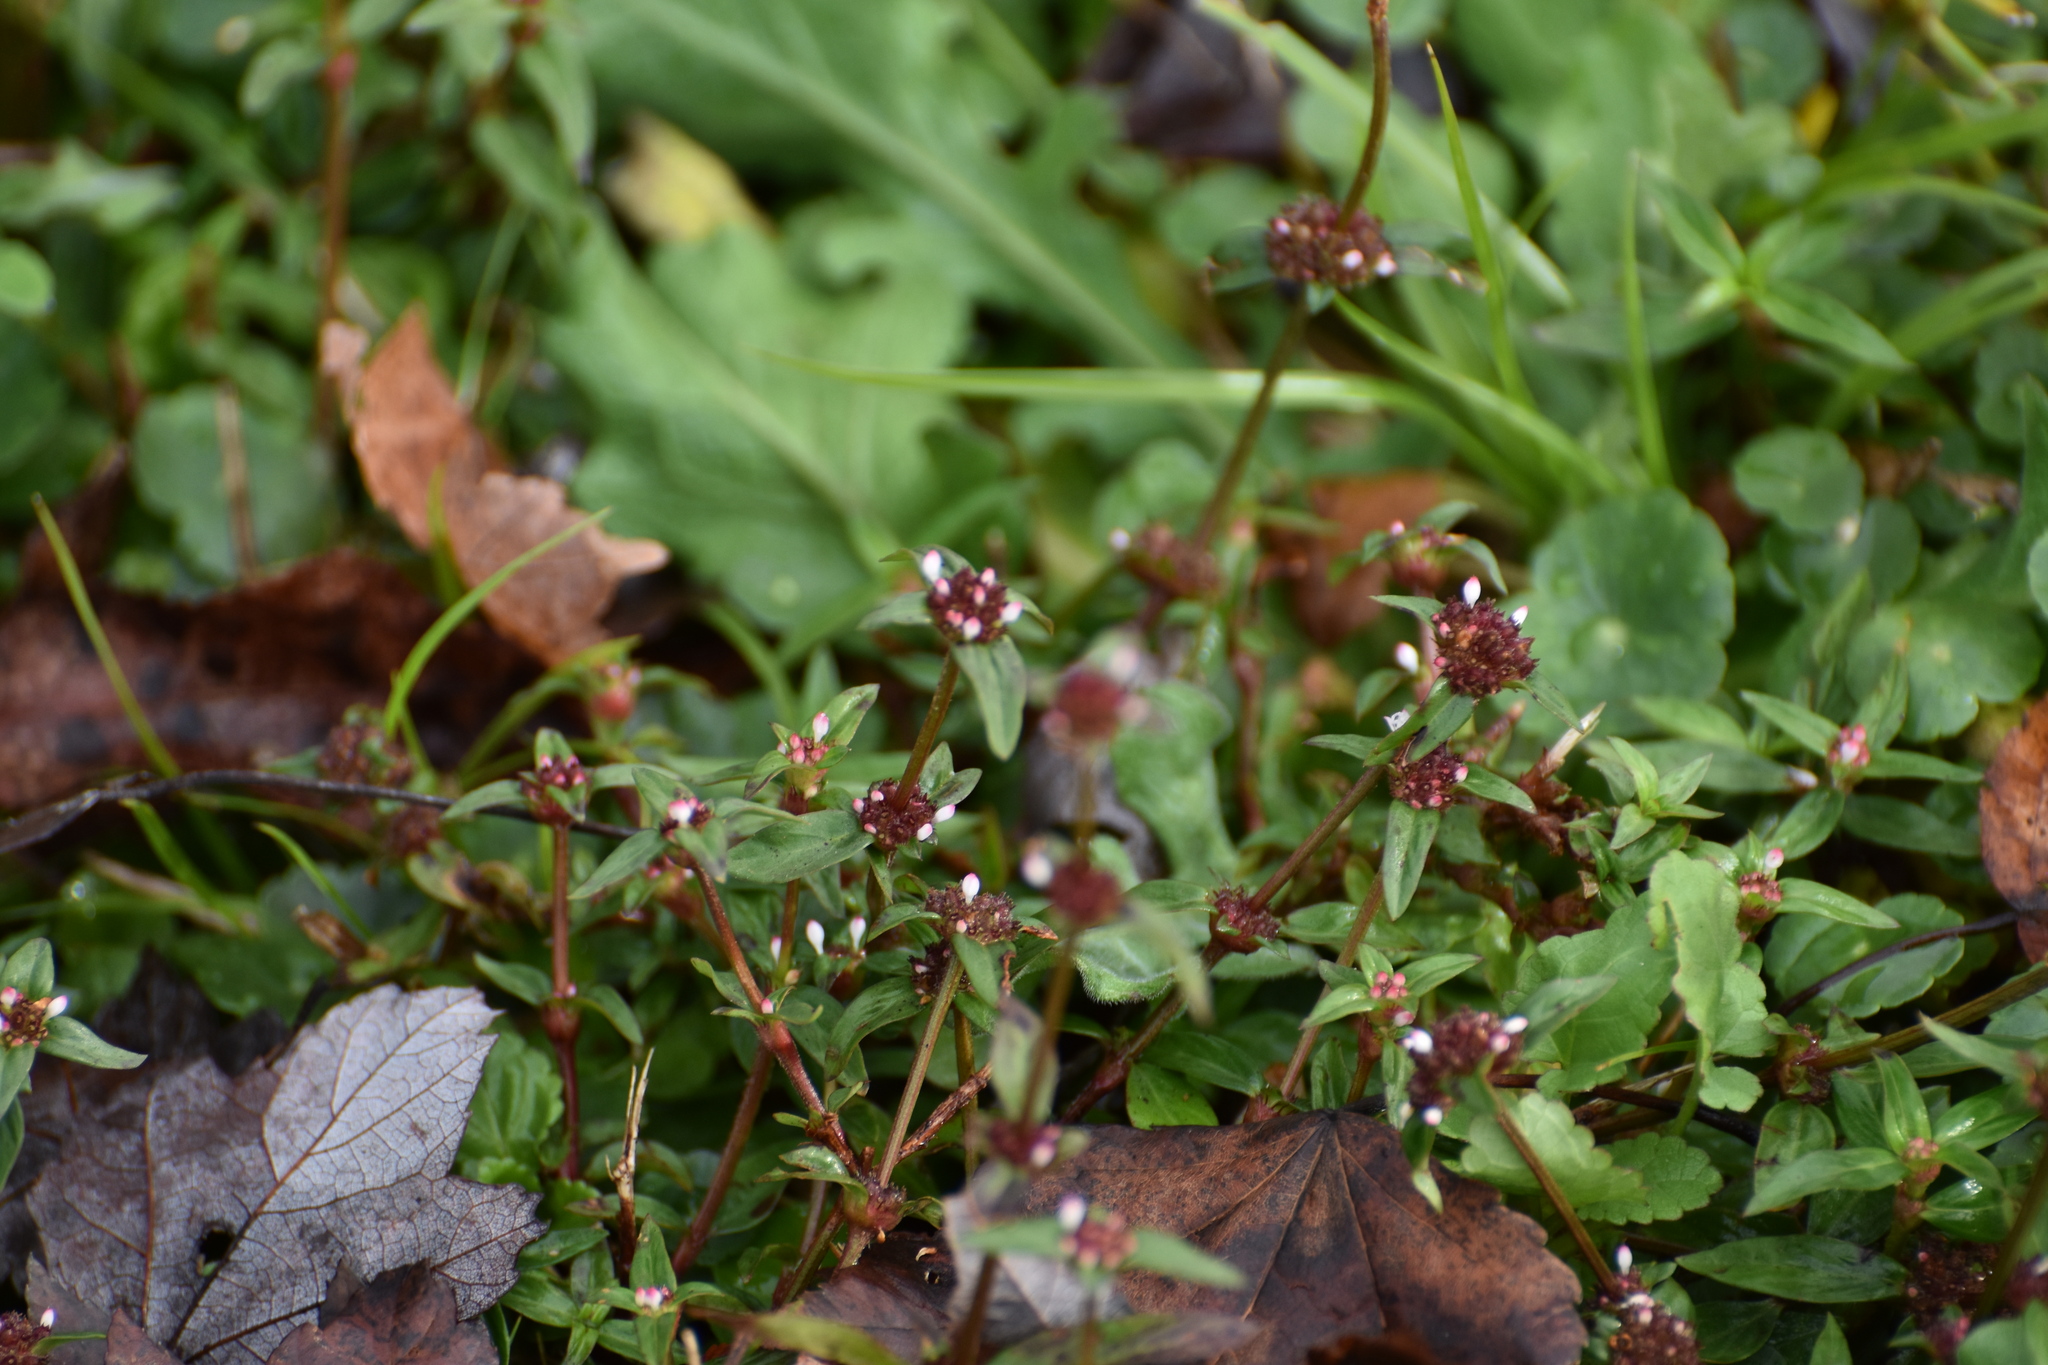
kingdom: Plantae
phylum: Tracheophyta
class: Magnoliopsida
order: Gentianales
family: Rubiaceae
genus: Spermacoce
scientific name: Spermacoce remota
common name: Woodland false buttonweed
